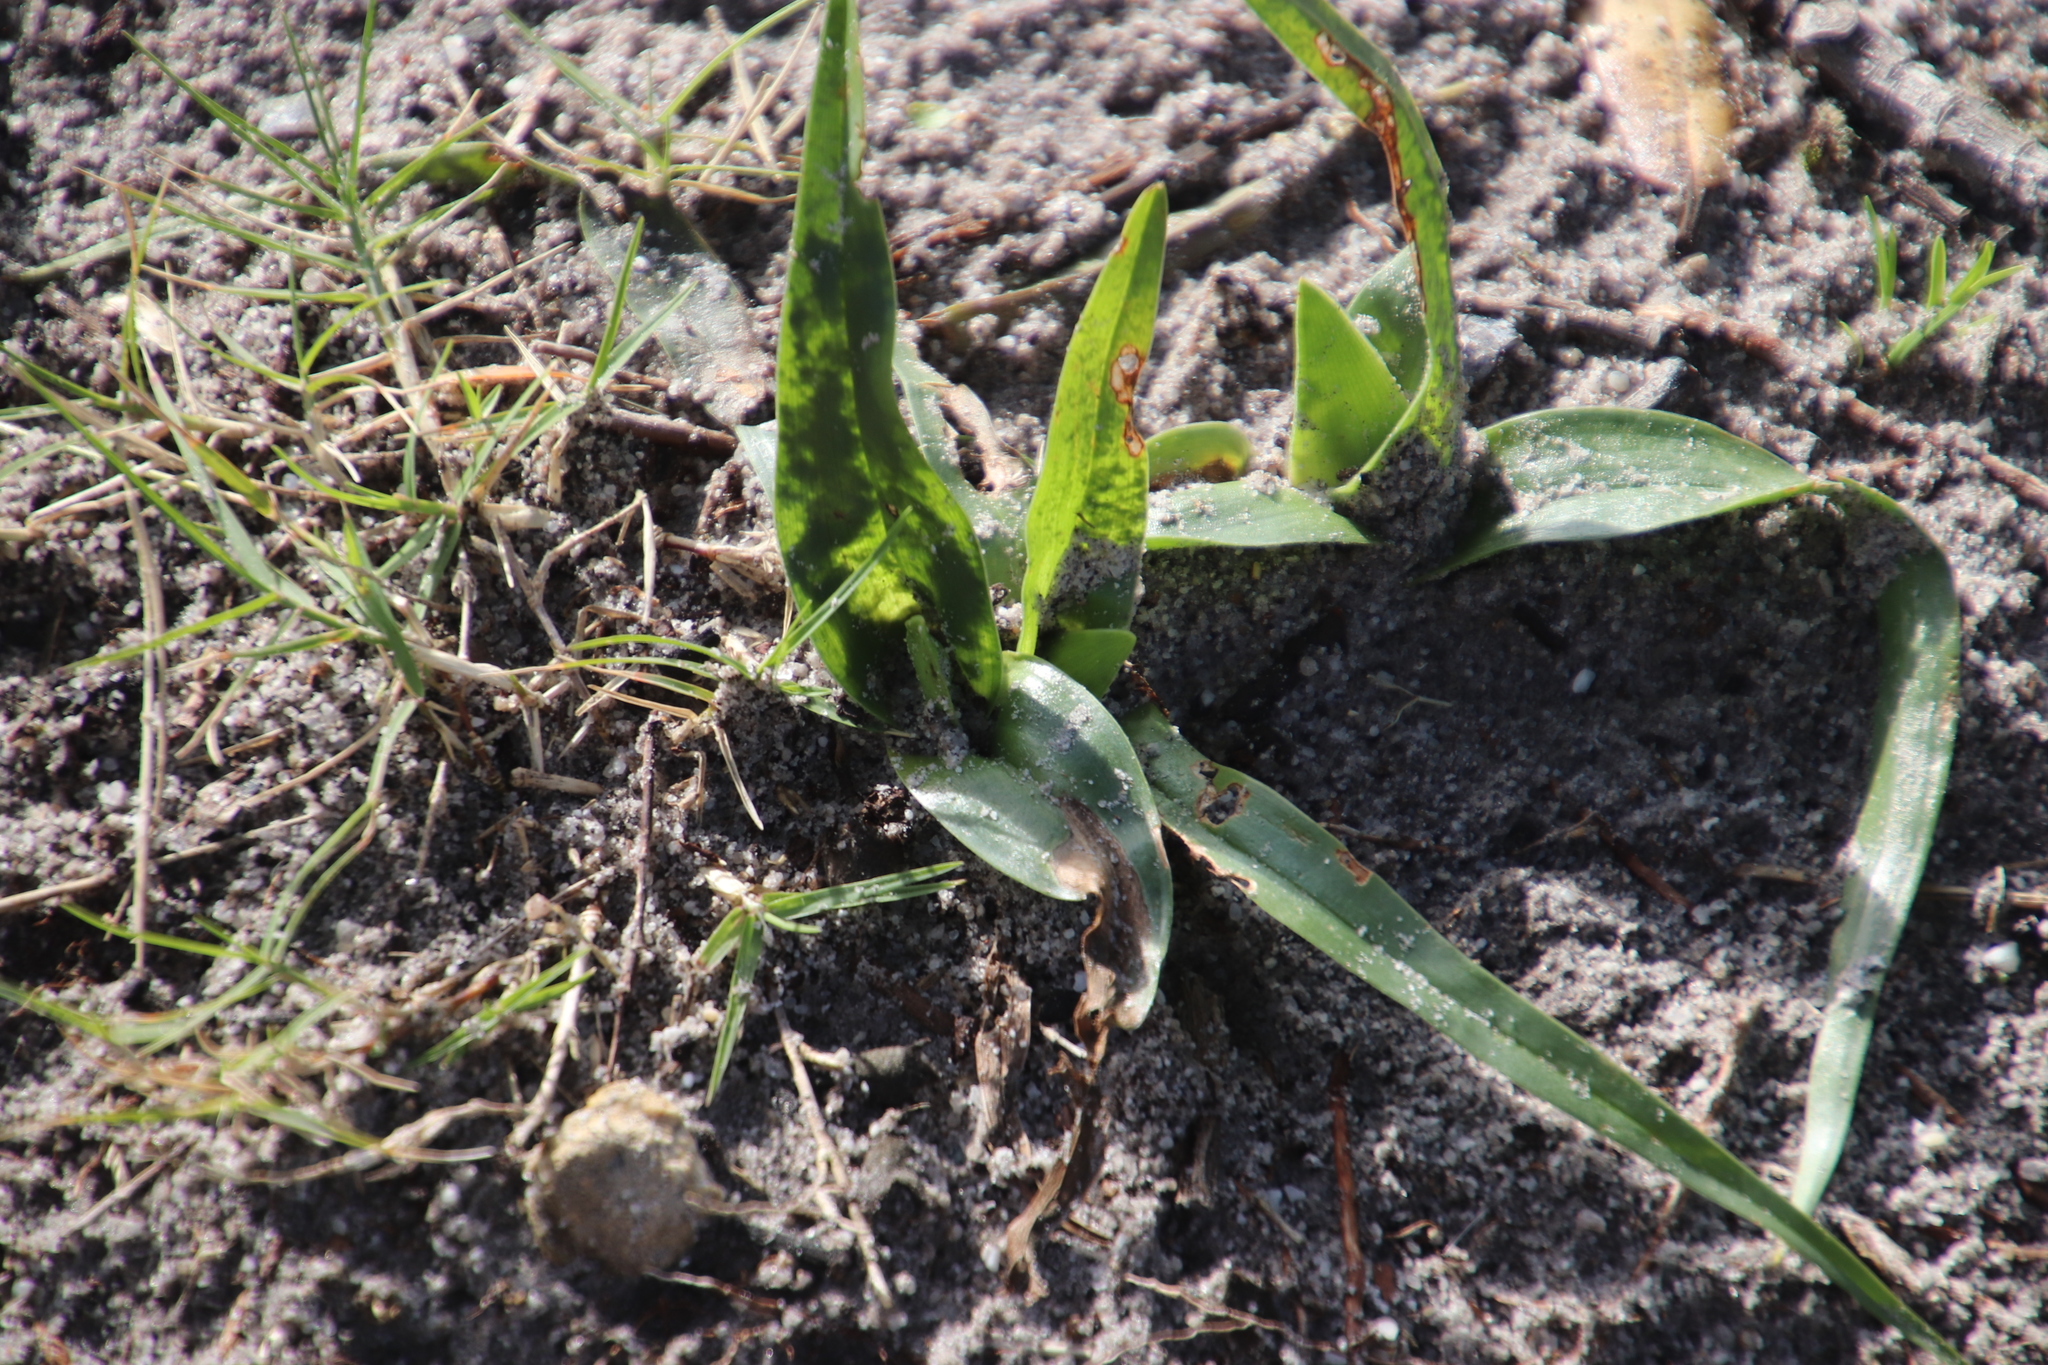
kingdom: Plantae
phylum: Tracheophyta
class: Liliopsida
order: Liliales
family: Colchicaceae
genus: Colchicum
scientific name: Colchicum eucomoides
